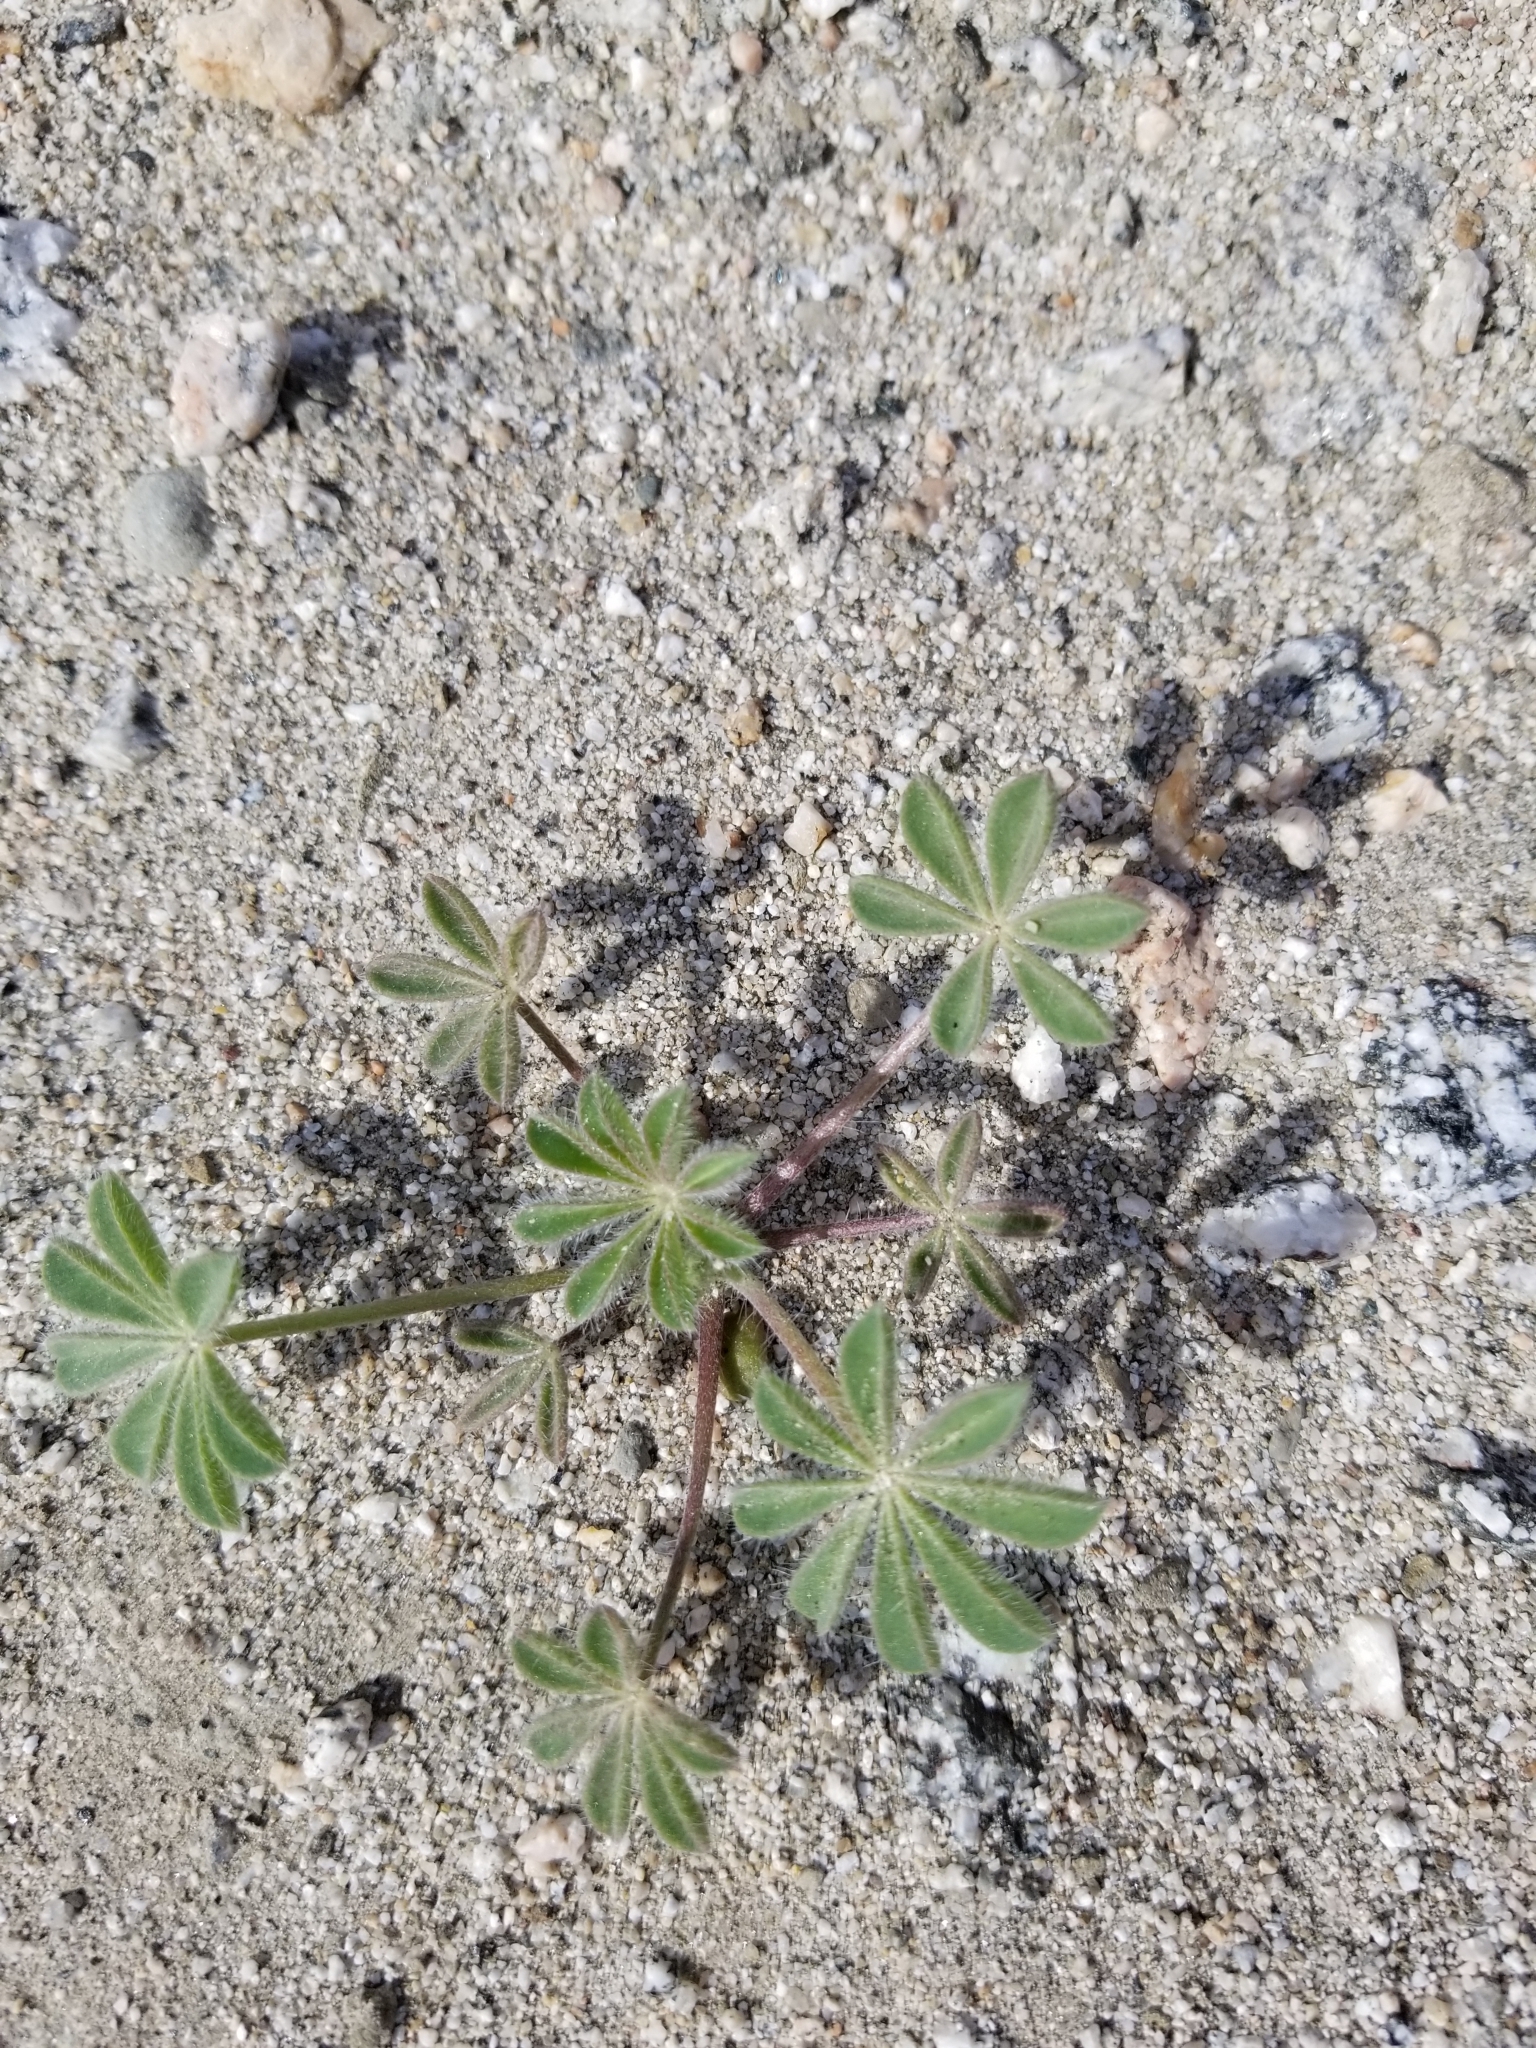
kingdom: Plantae
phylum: Tracheophyta
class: Magnoliopsida
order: Fabales
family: Fabaceae
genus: Lupinus
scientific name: Lupinus arizonicus
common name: Arizona lupine
